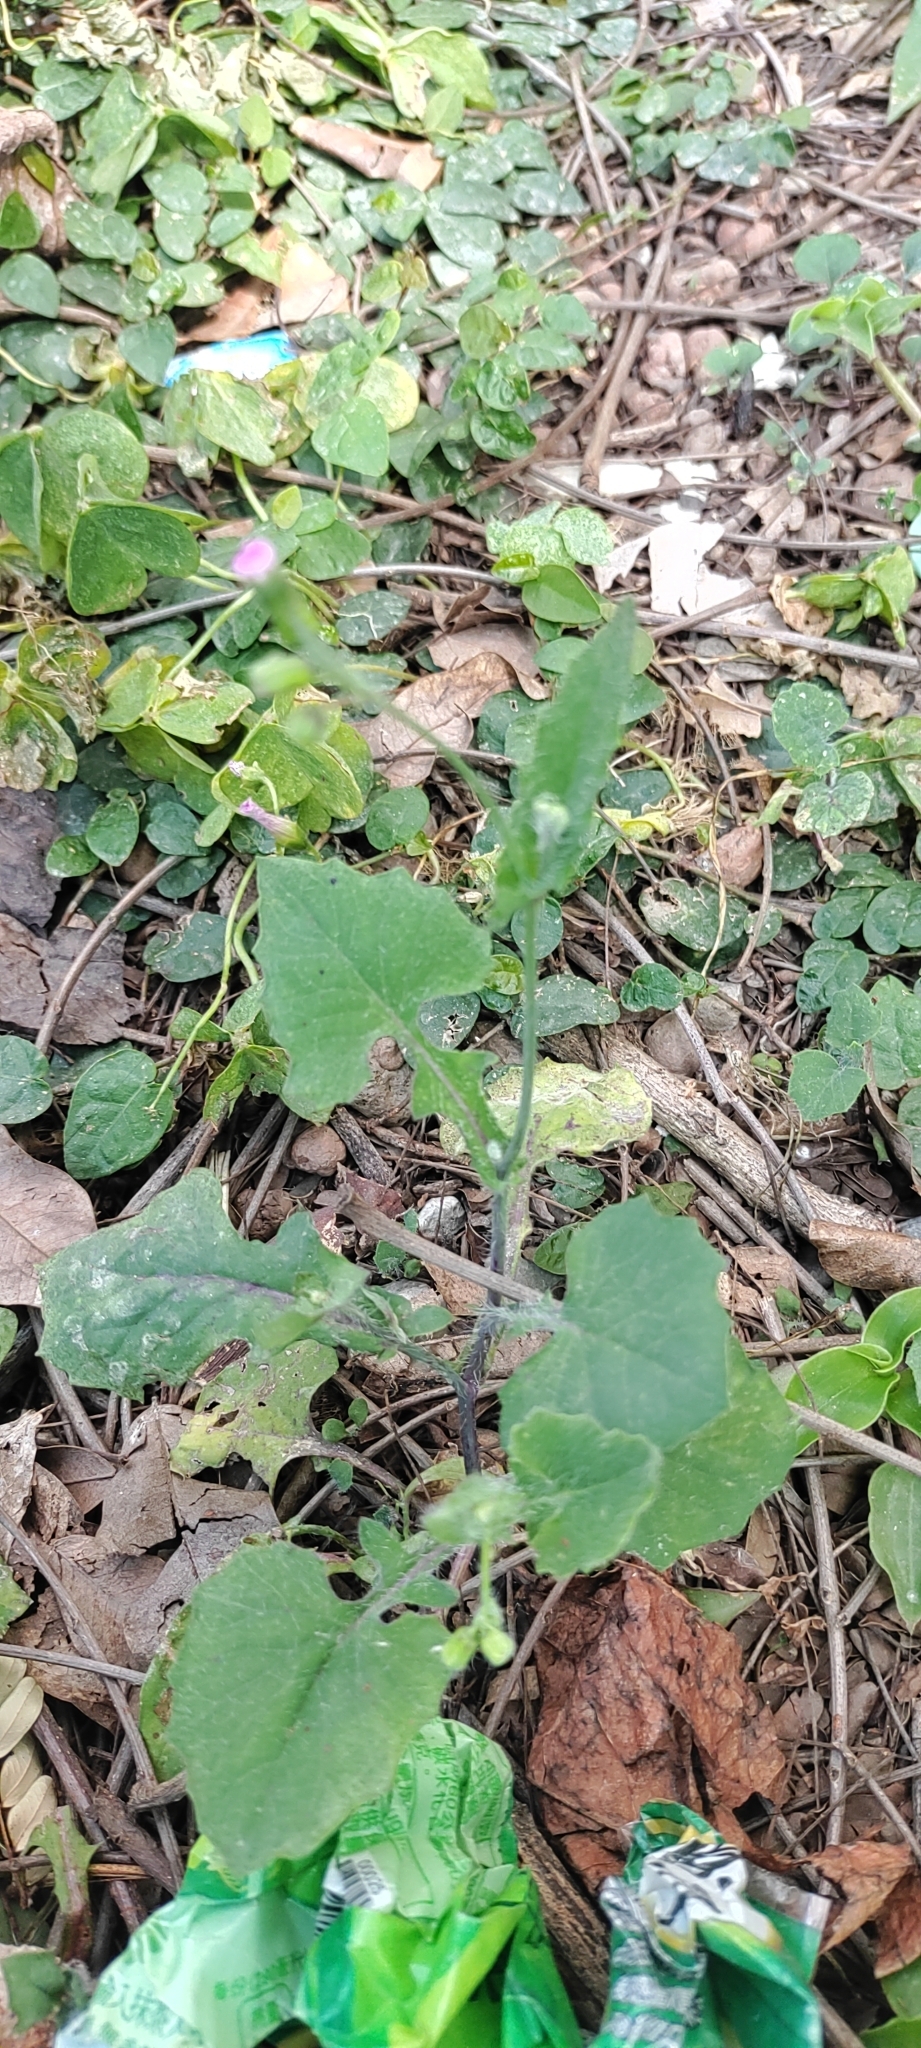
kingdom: Plantae
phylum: Tracheophyta
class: Magnoliopsida
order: Asterales
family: Asteraceae
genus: Emilia
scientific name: Emilia javanica
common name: Tassel-flower
